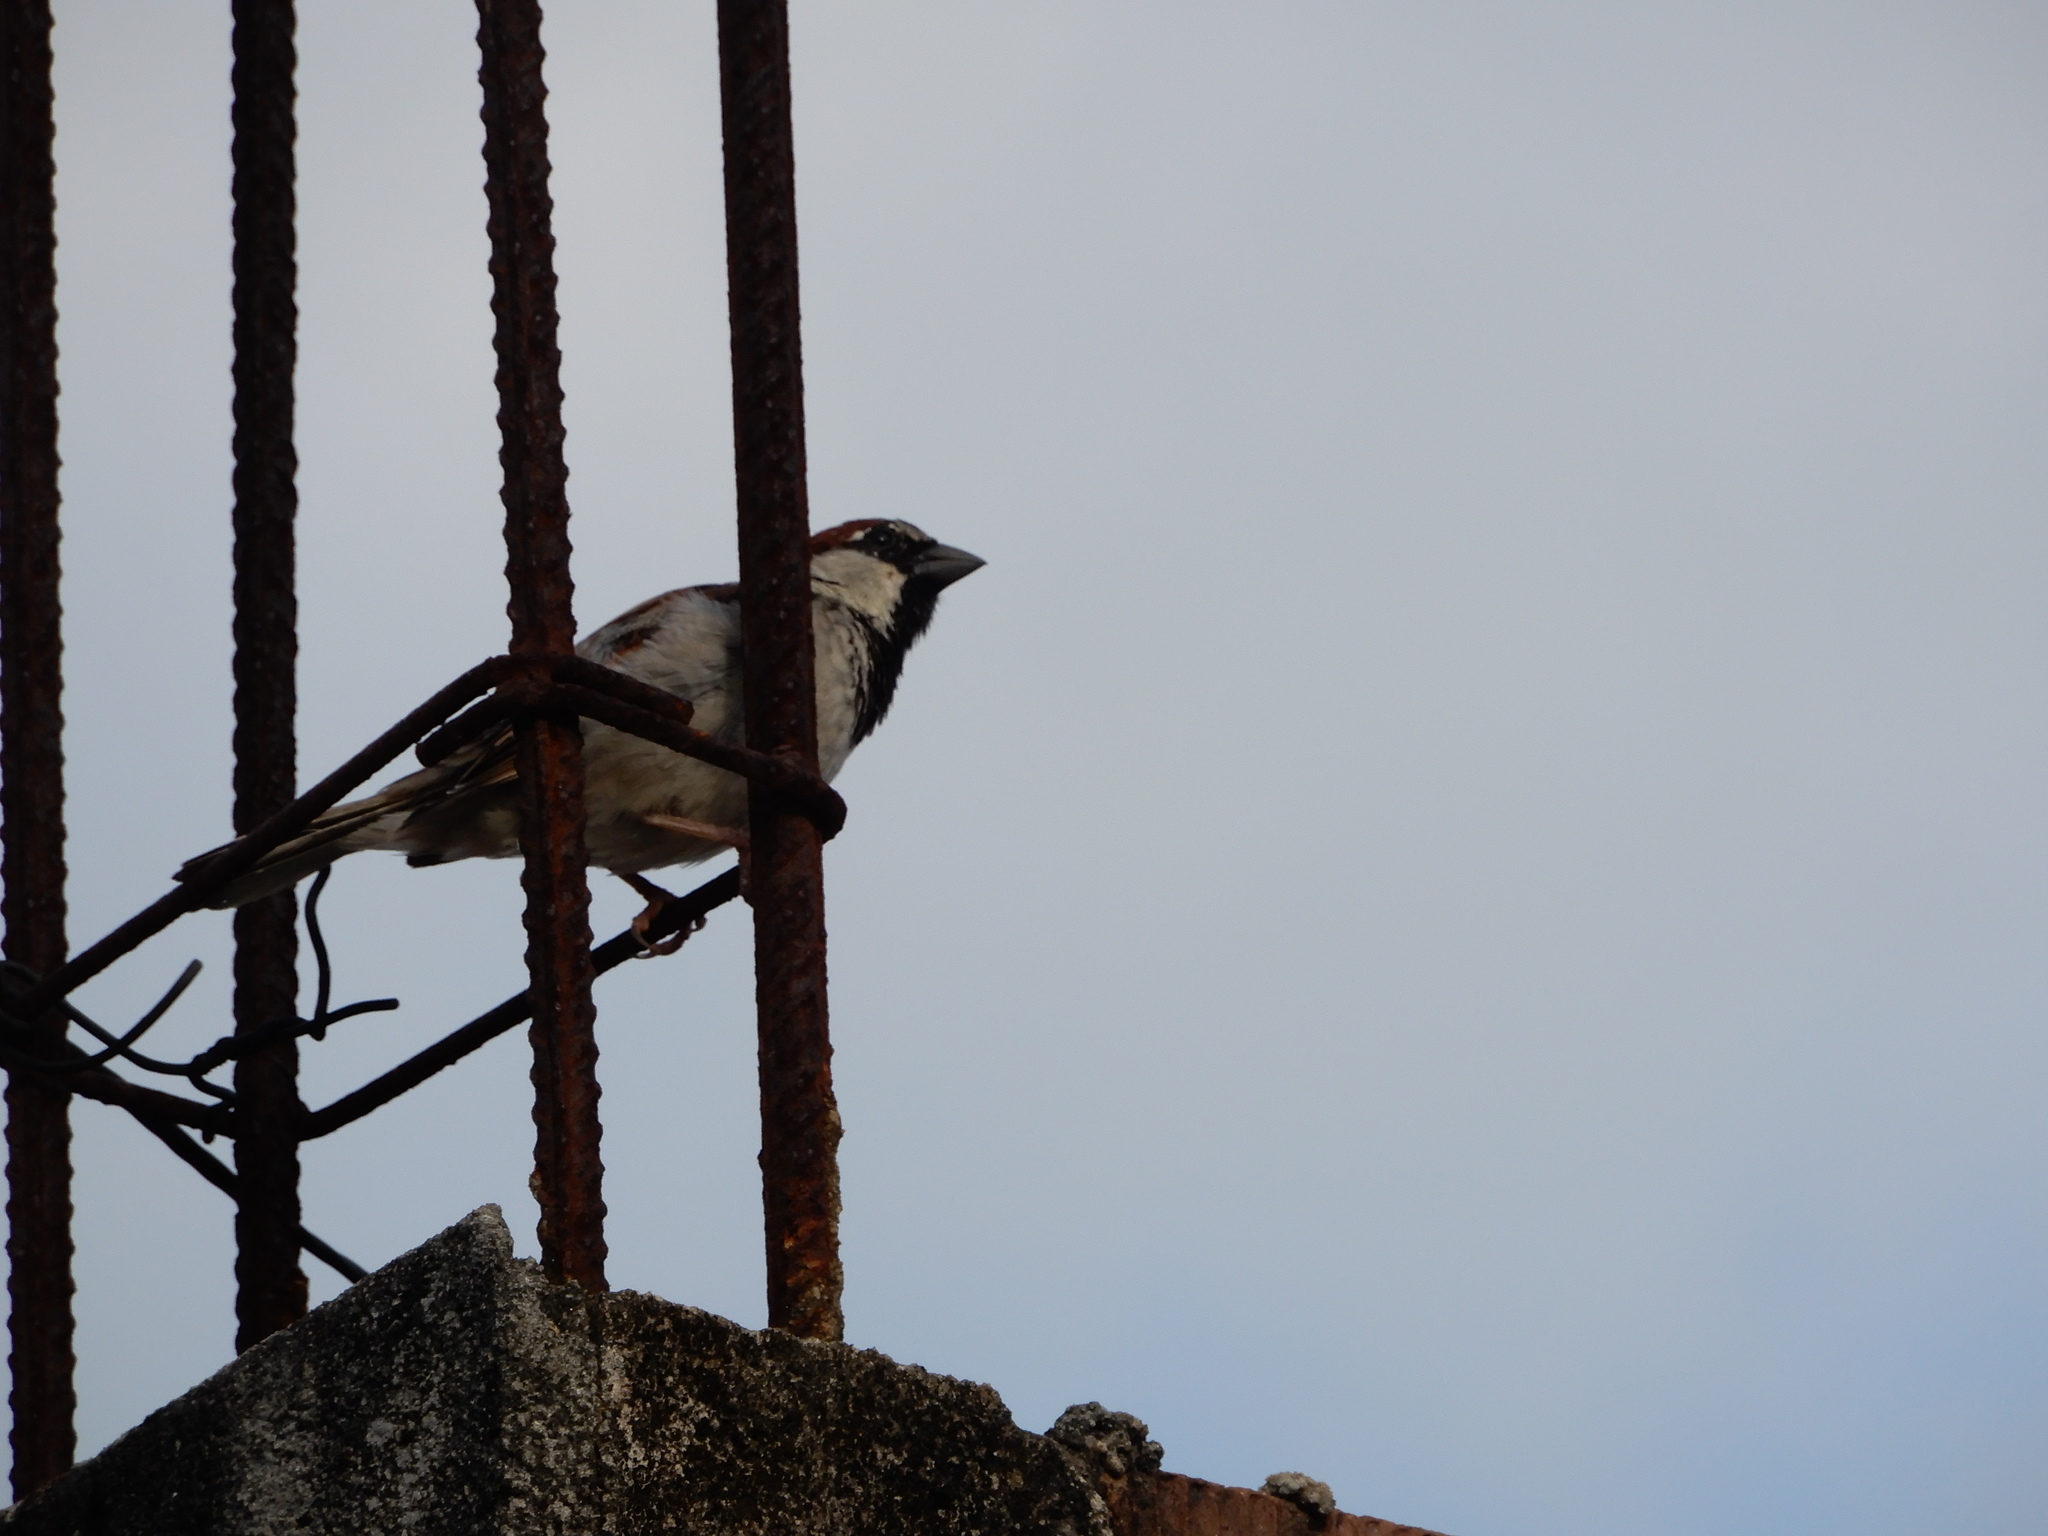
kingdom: Animalia
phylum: Chordata
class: Aves
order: Passeriformes
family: Passeridae
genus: Passer
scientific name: Passer domesticus
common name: House sparrow
